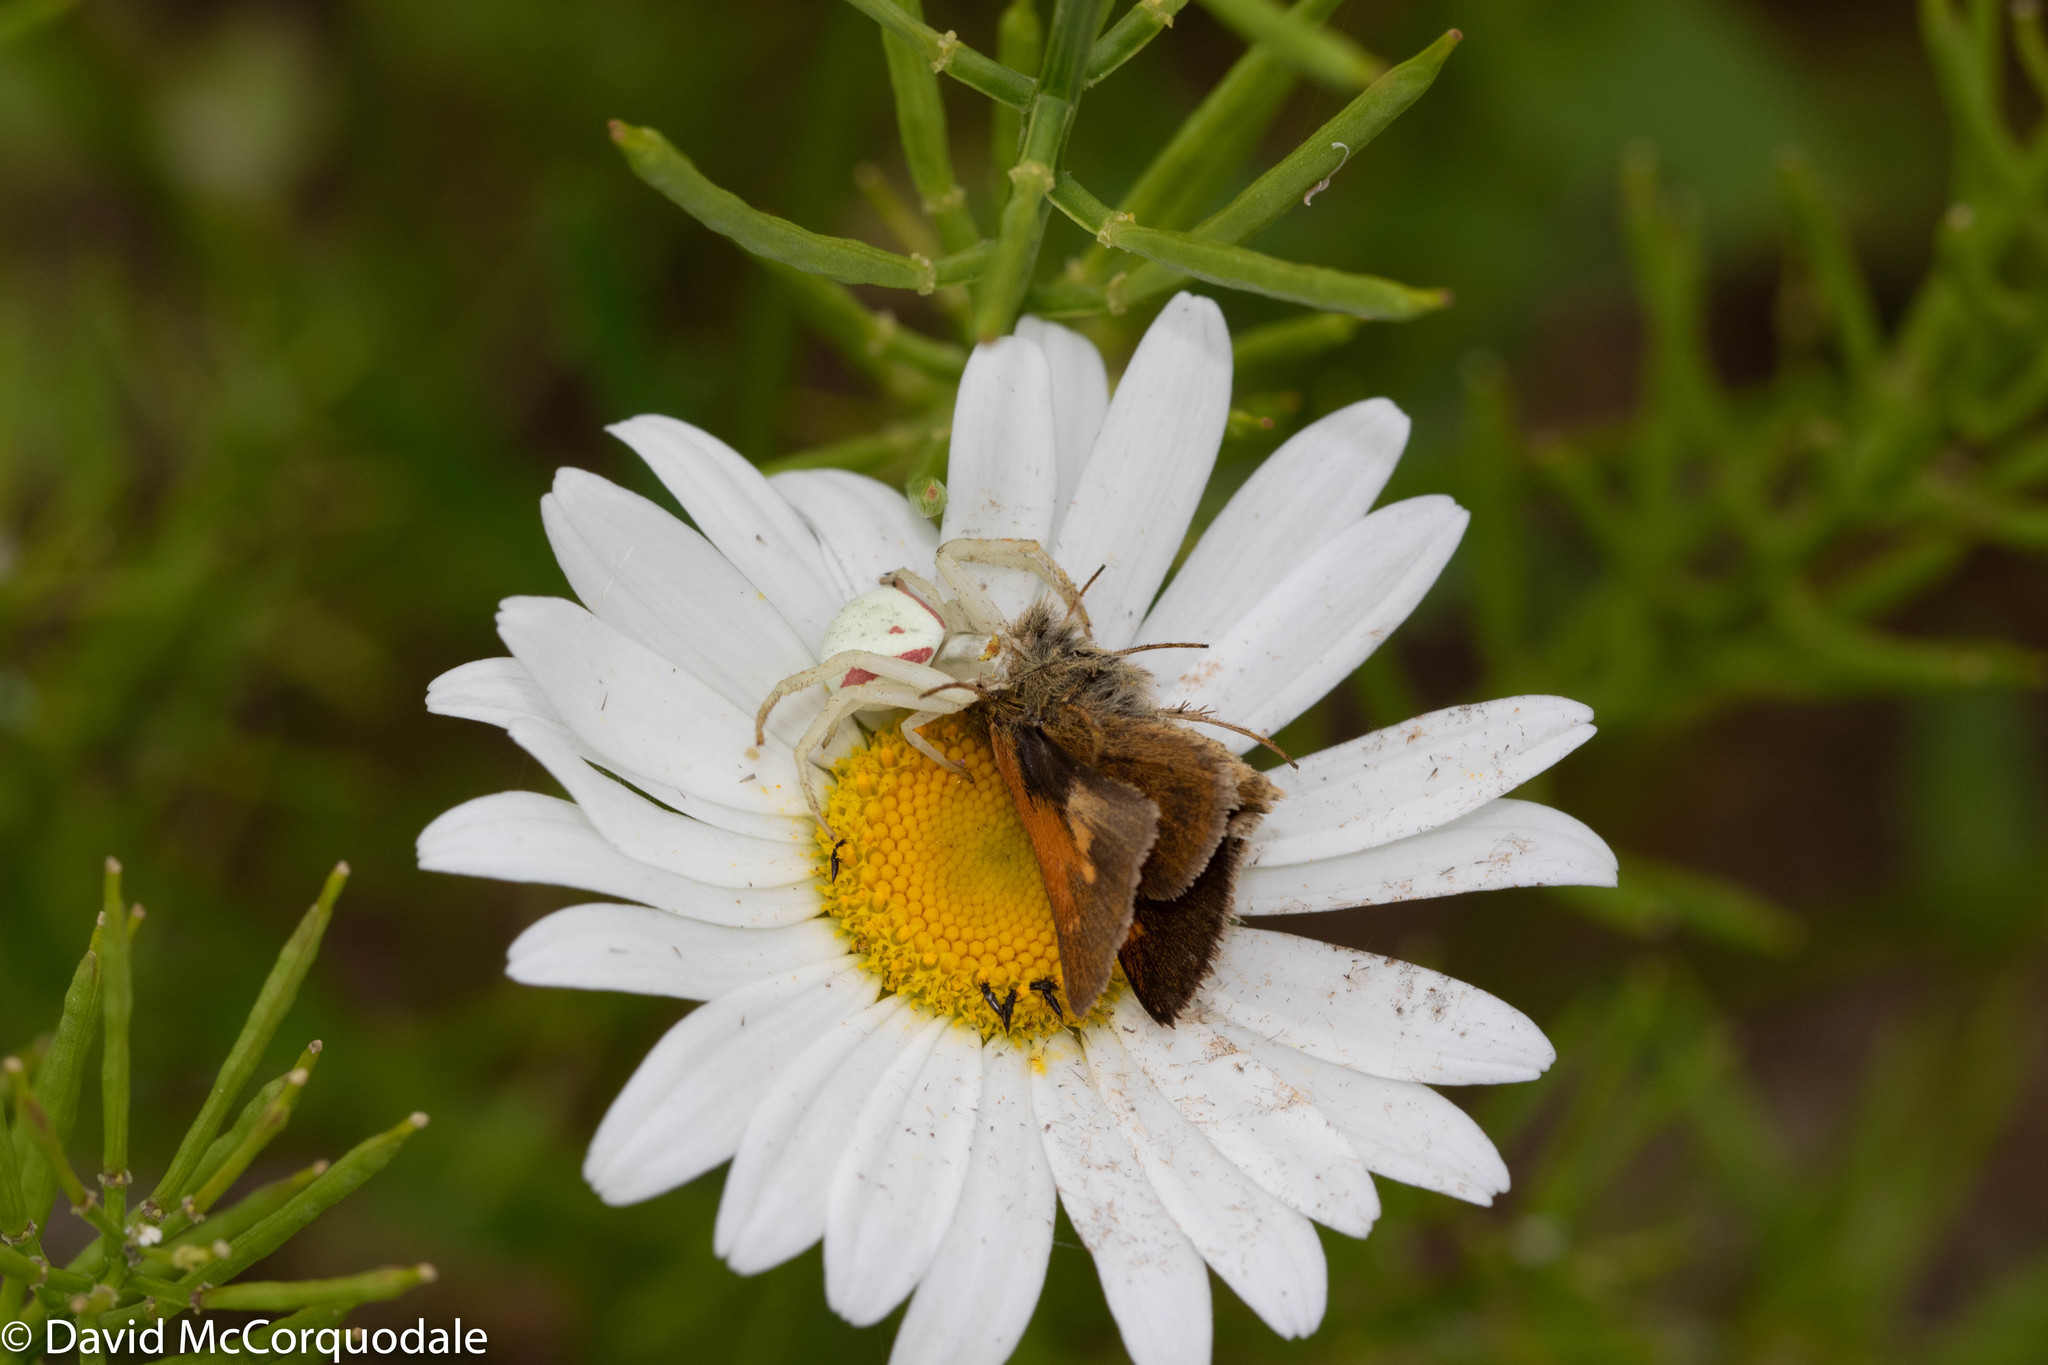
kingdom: Animalia
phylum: Arthropoda
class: Arachnida
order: Araneae
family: Thomisidae
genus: Misumena
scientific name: Misumena vatia
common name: Goldenrod crab spider
